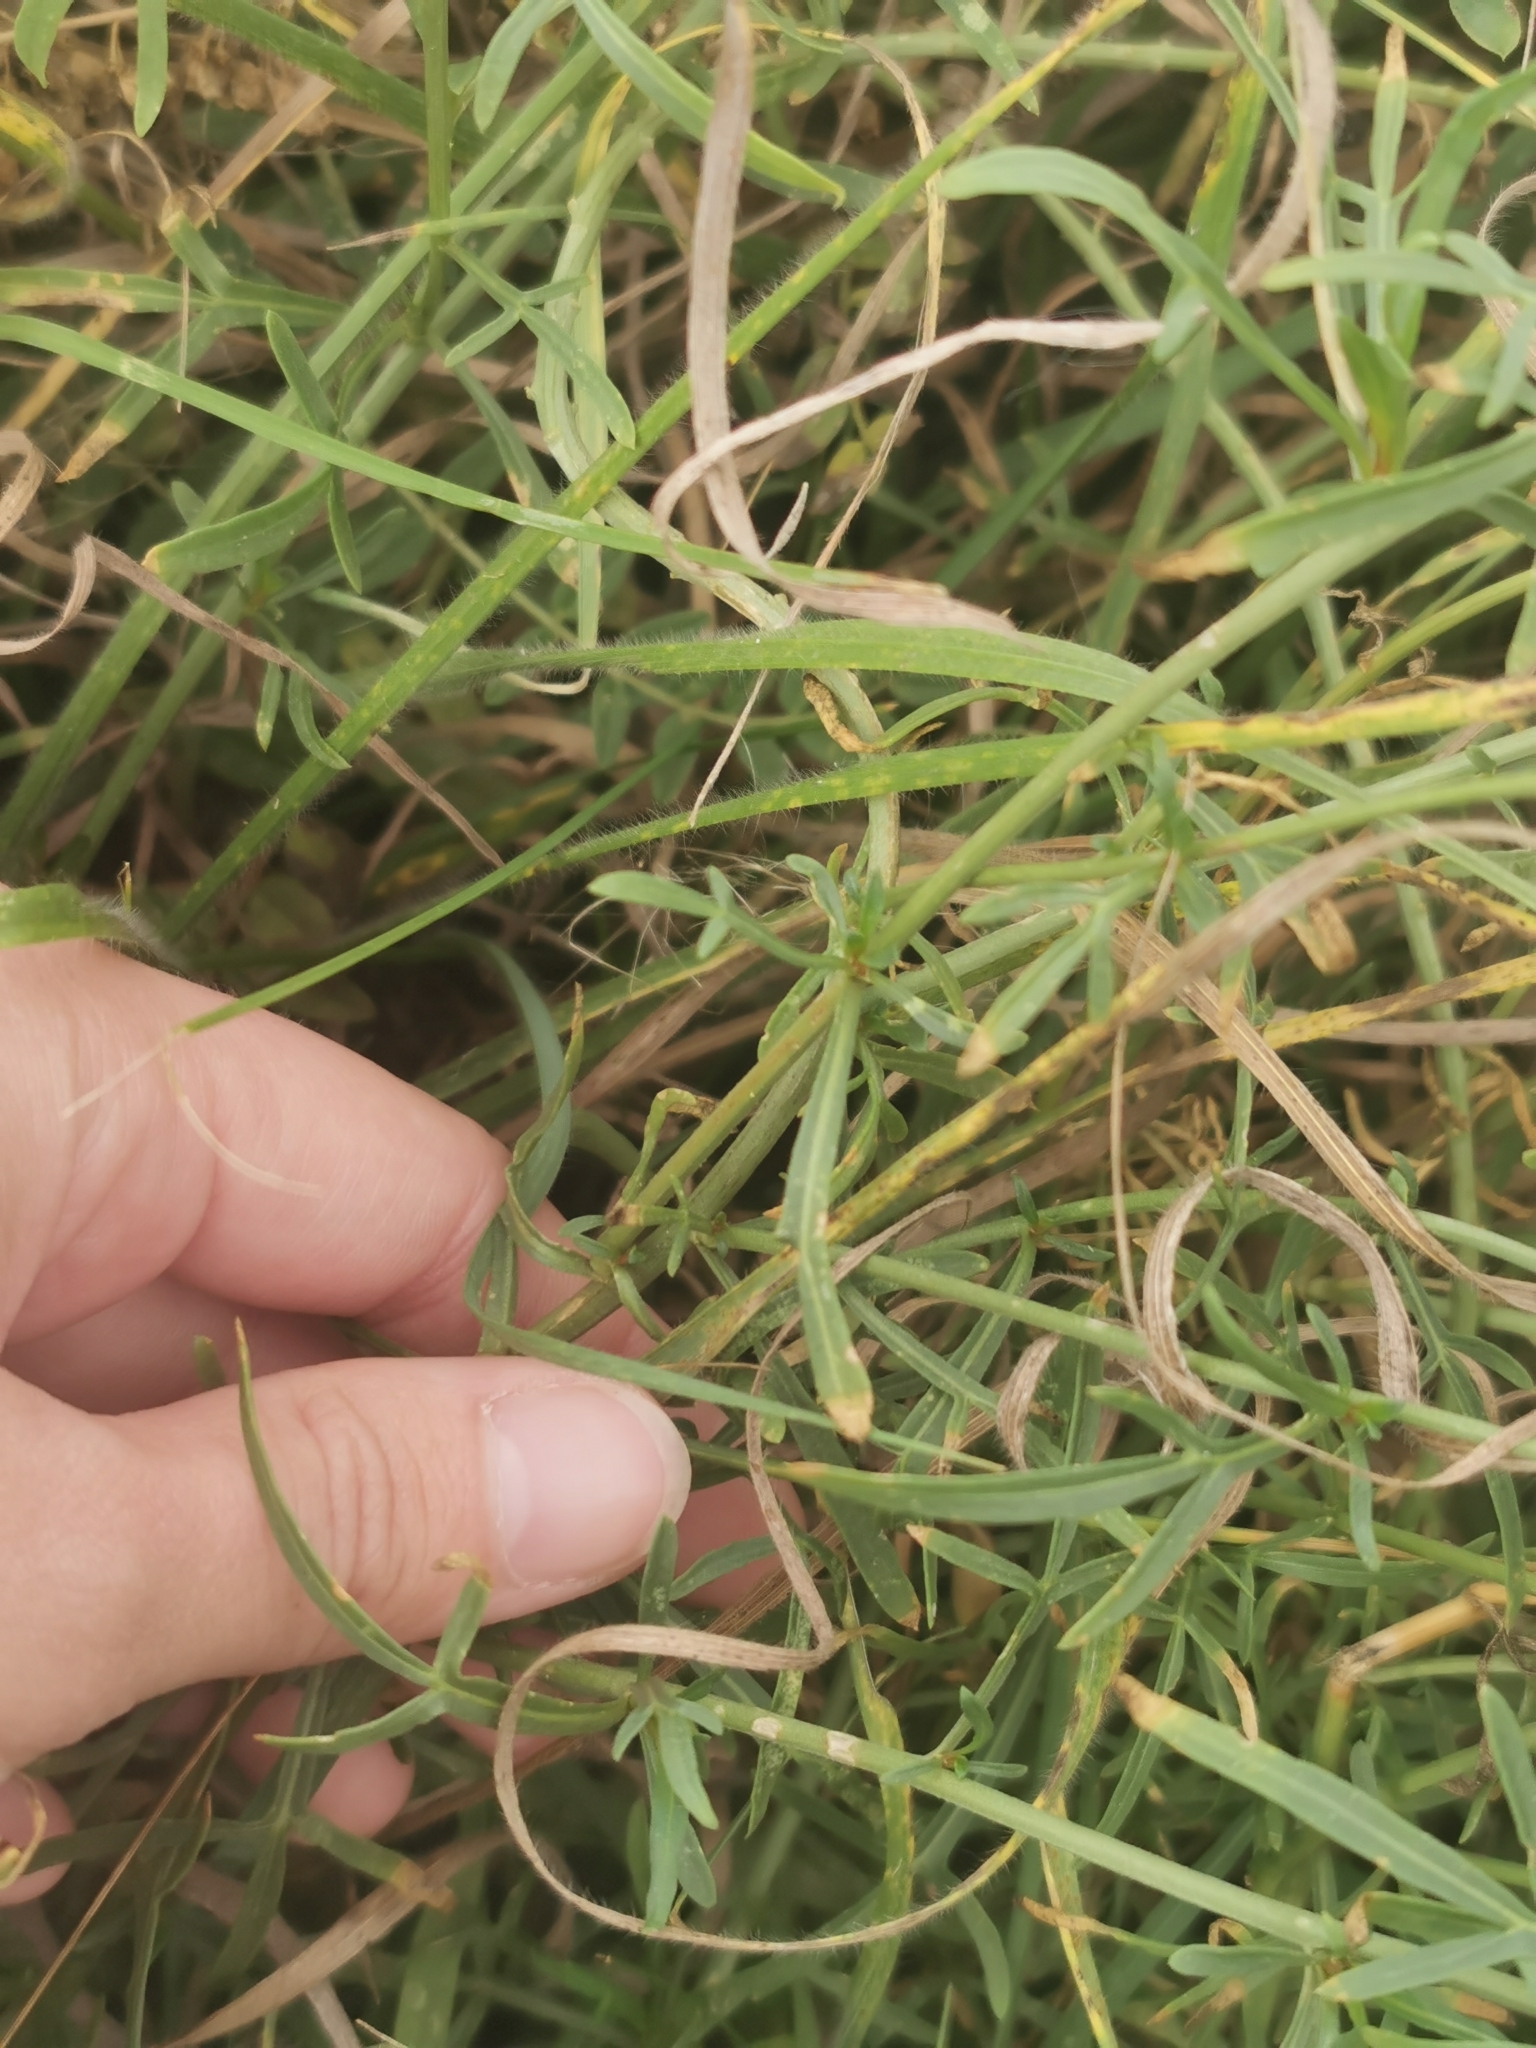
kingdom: Plantae
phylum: Tracheophyta
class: Magnoliopsida
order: Brassicales
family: Resedaceae
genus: Reseda
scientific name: Reseda lutea
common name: Wild mignonette
